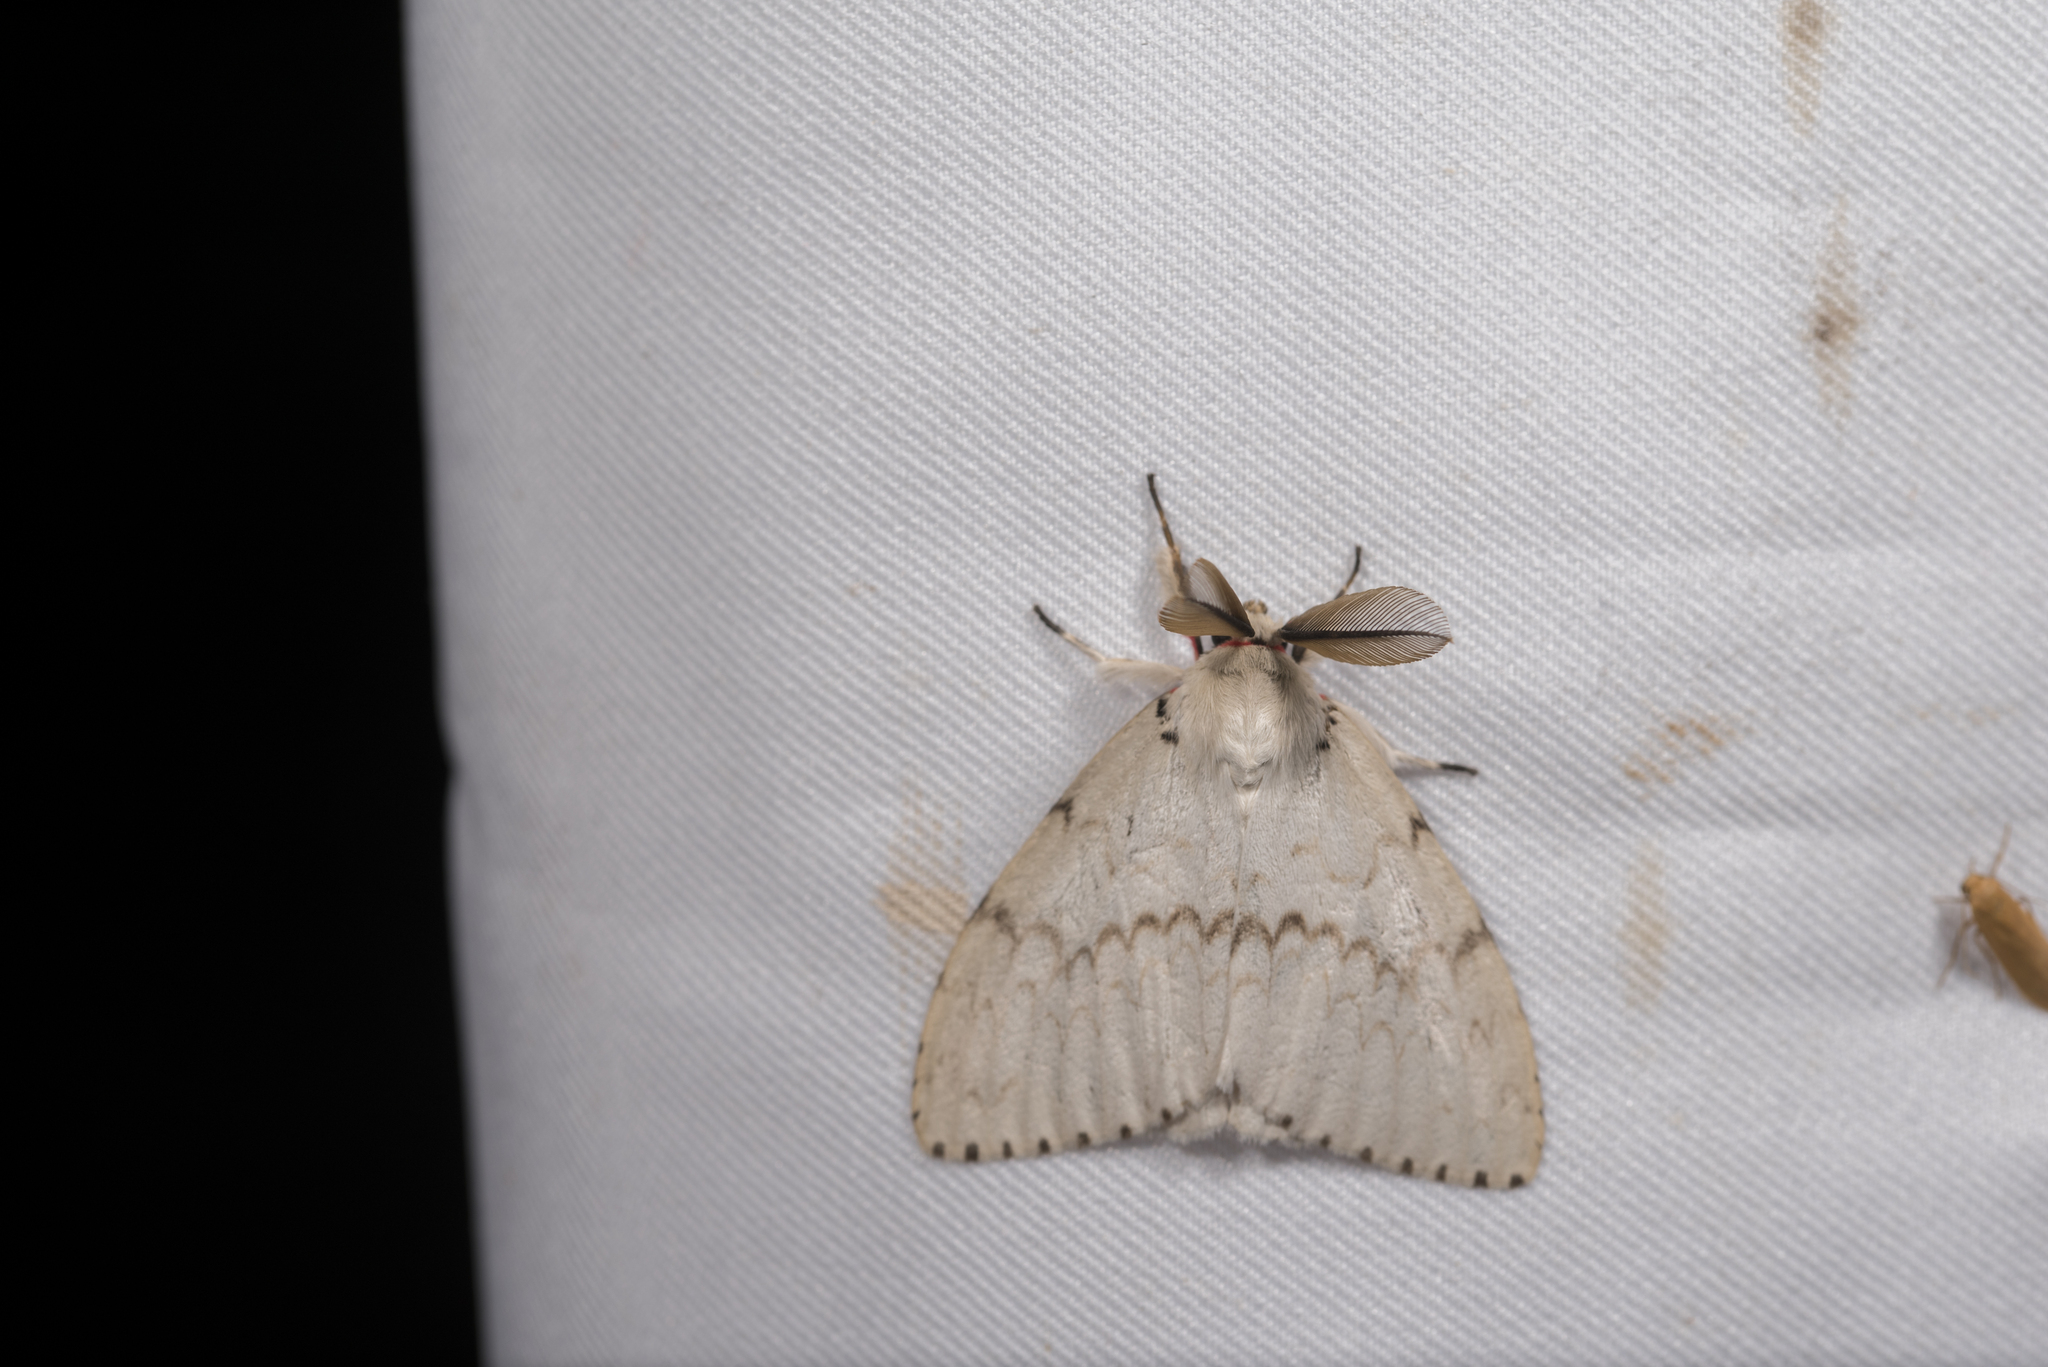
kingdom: Animalia
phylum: Arthropoda
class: Insecta
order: Lepidoptera
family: Erebidae
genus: Lymantria
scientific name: Lymantria xylina
